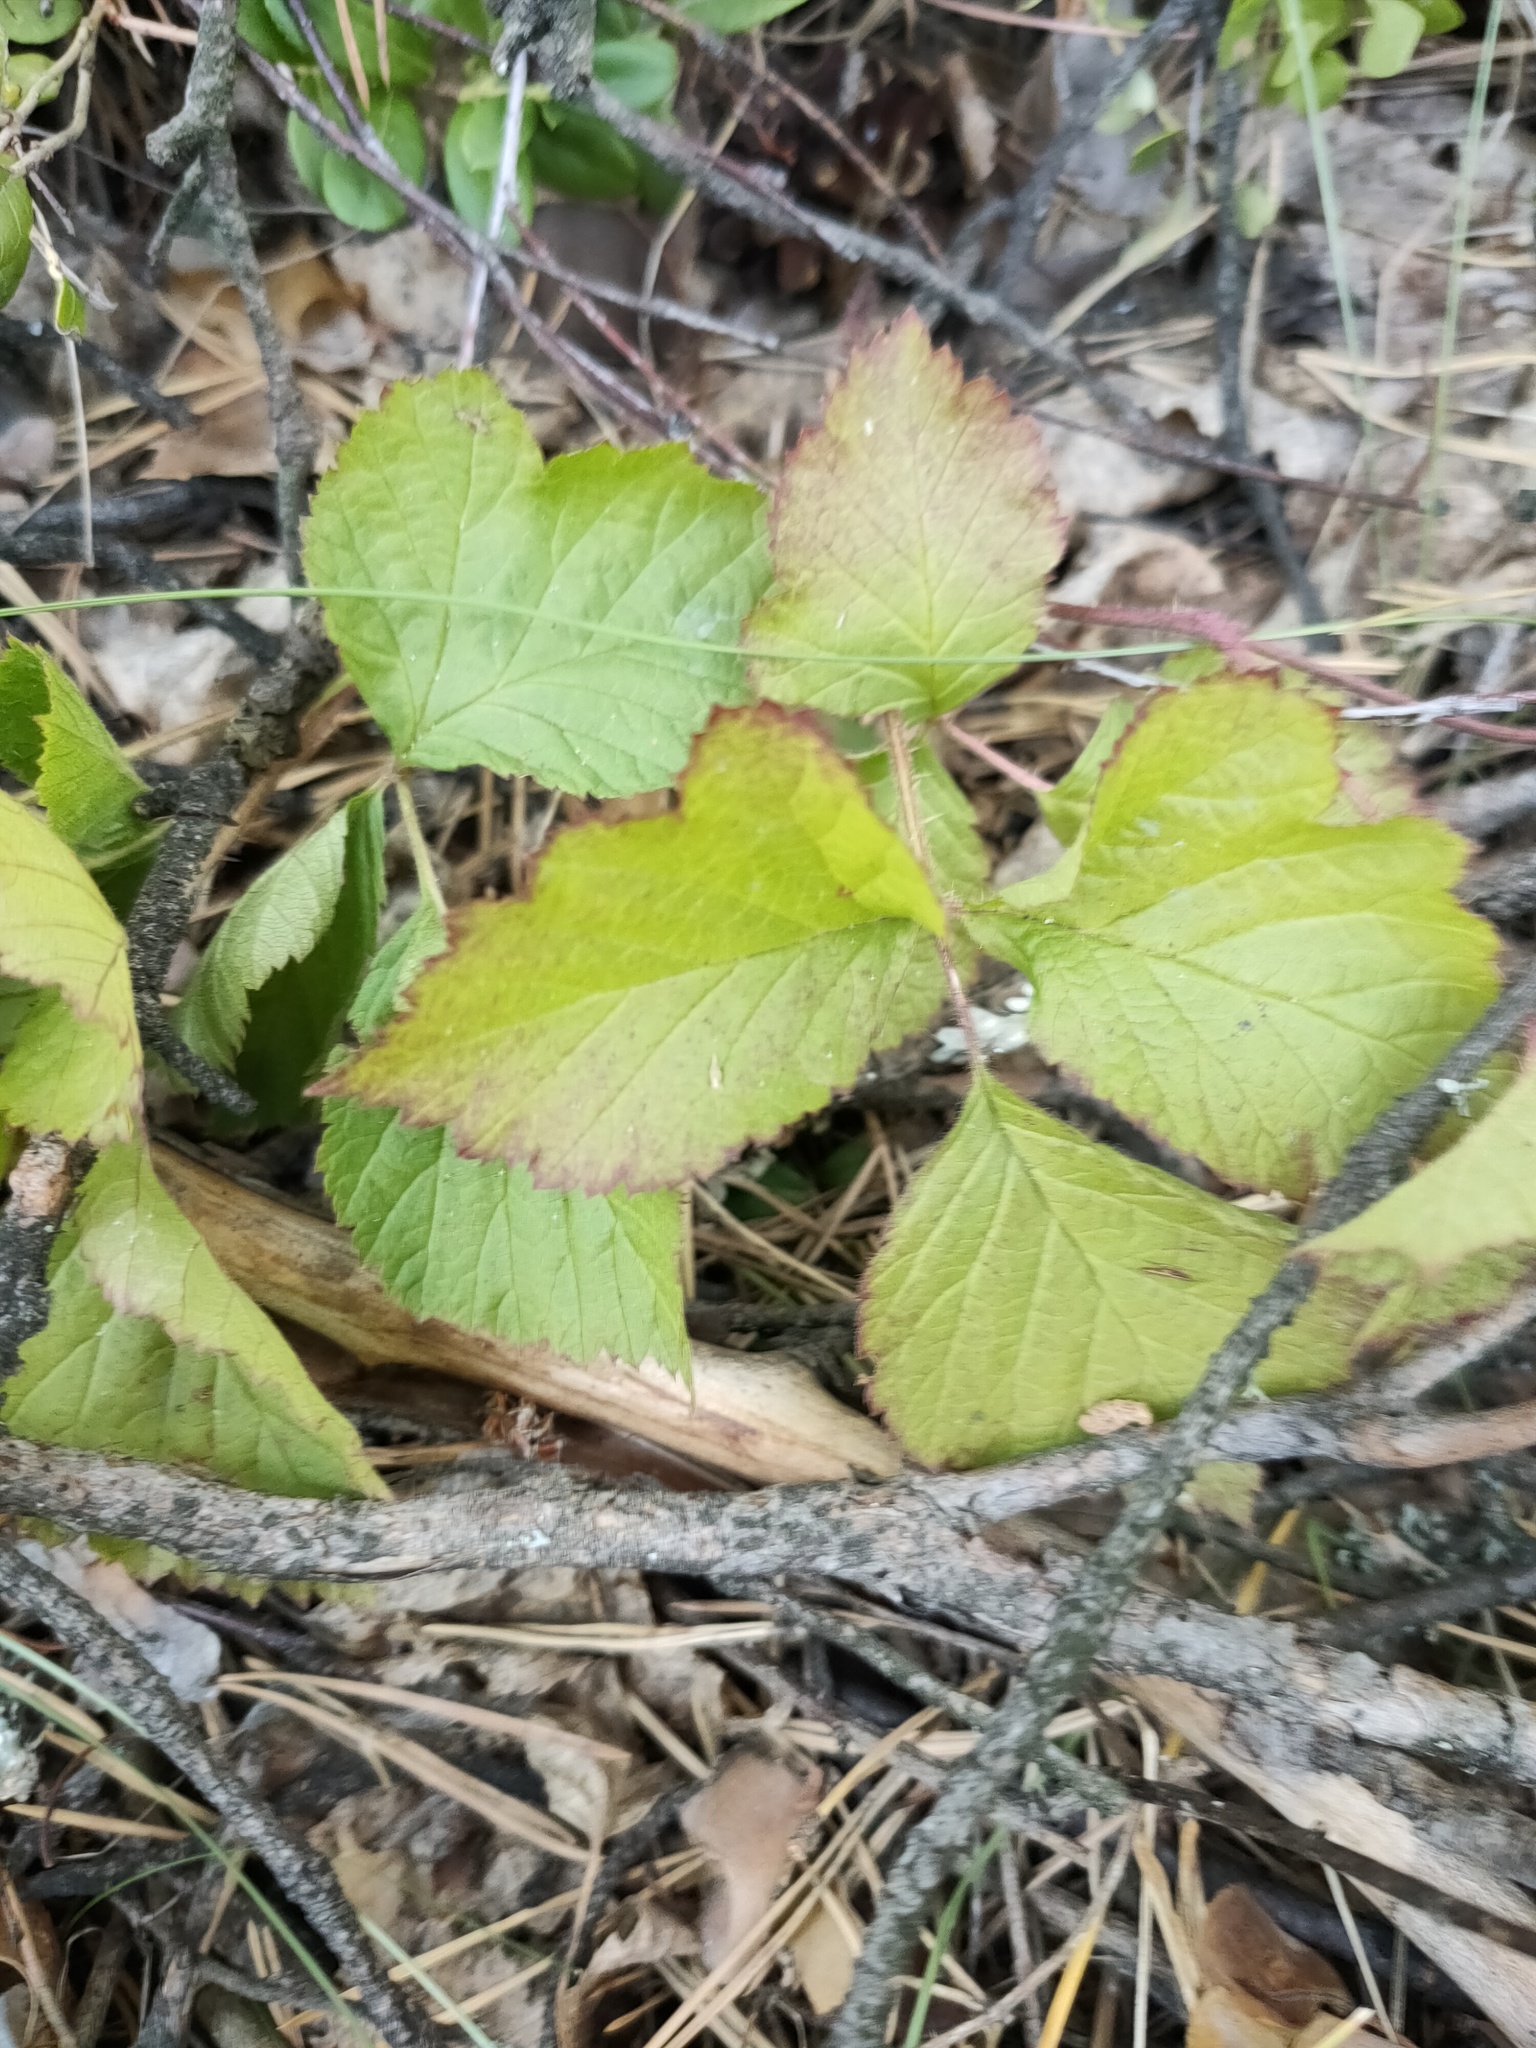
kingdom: Plantae
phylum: Tracheophyta
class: Magnoliopsida
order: Rosales
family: Rosaceae
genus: Rubus
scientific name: Rubus saxatilis
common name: Stone bramble
